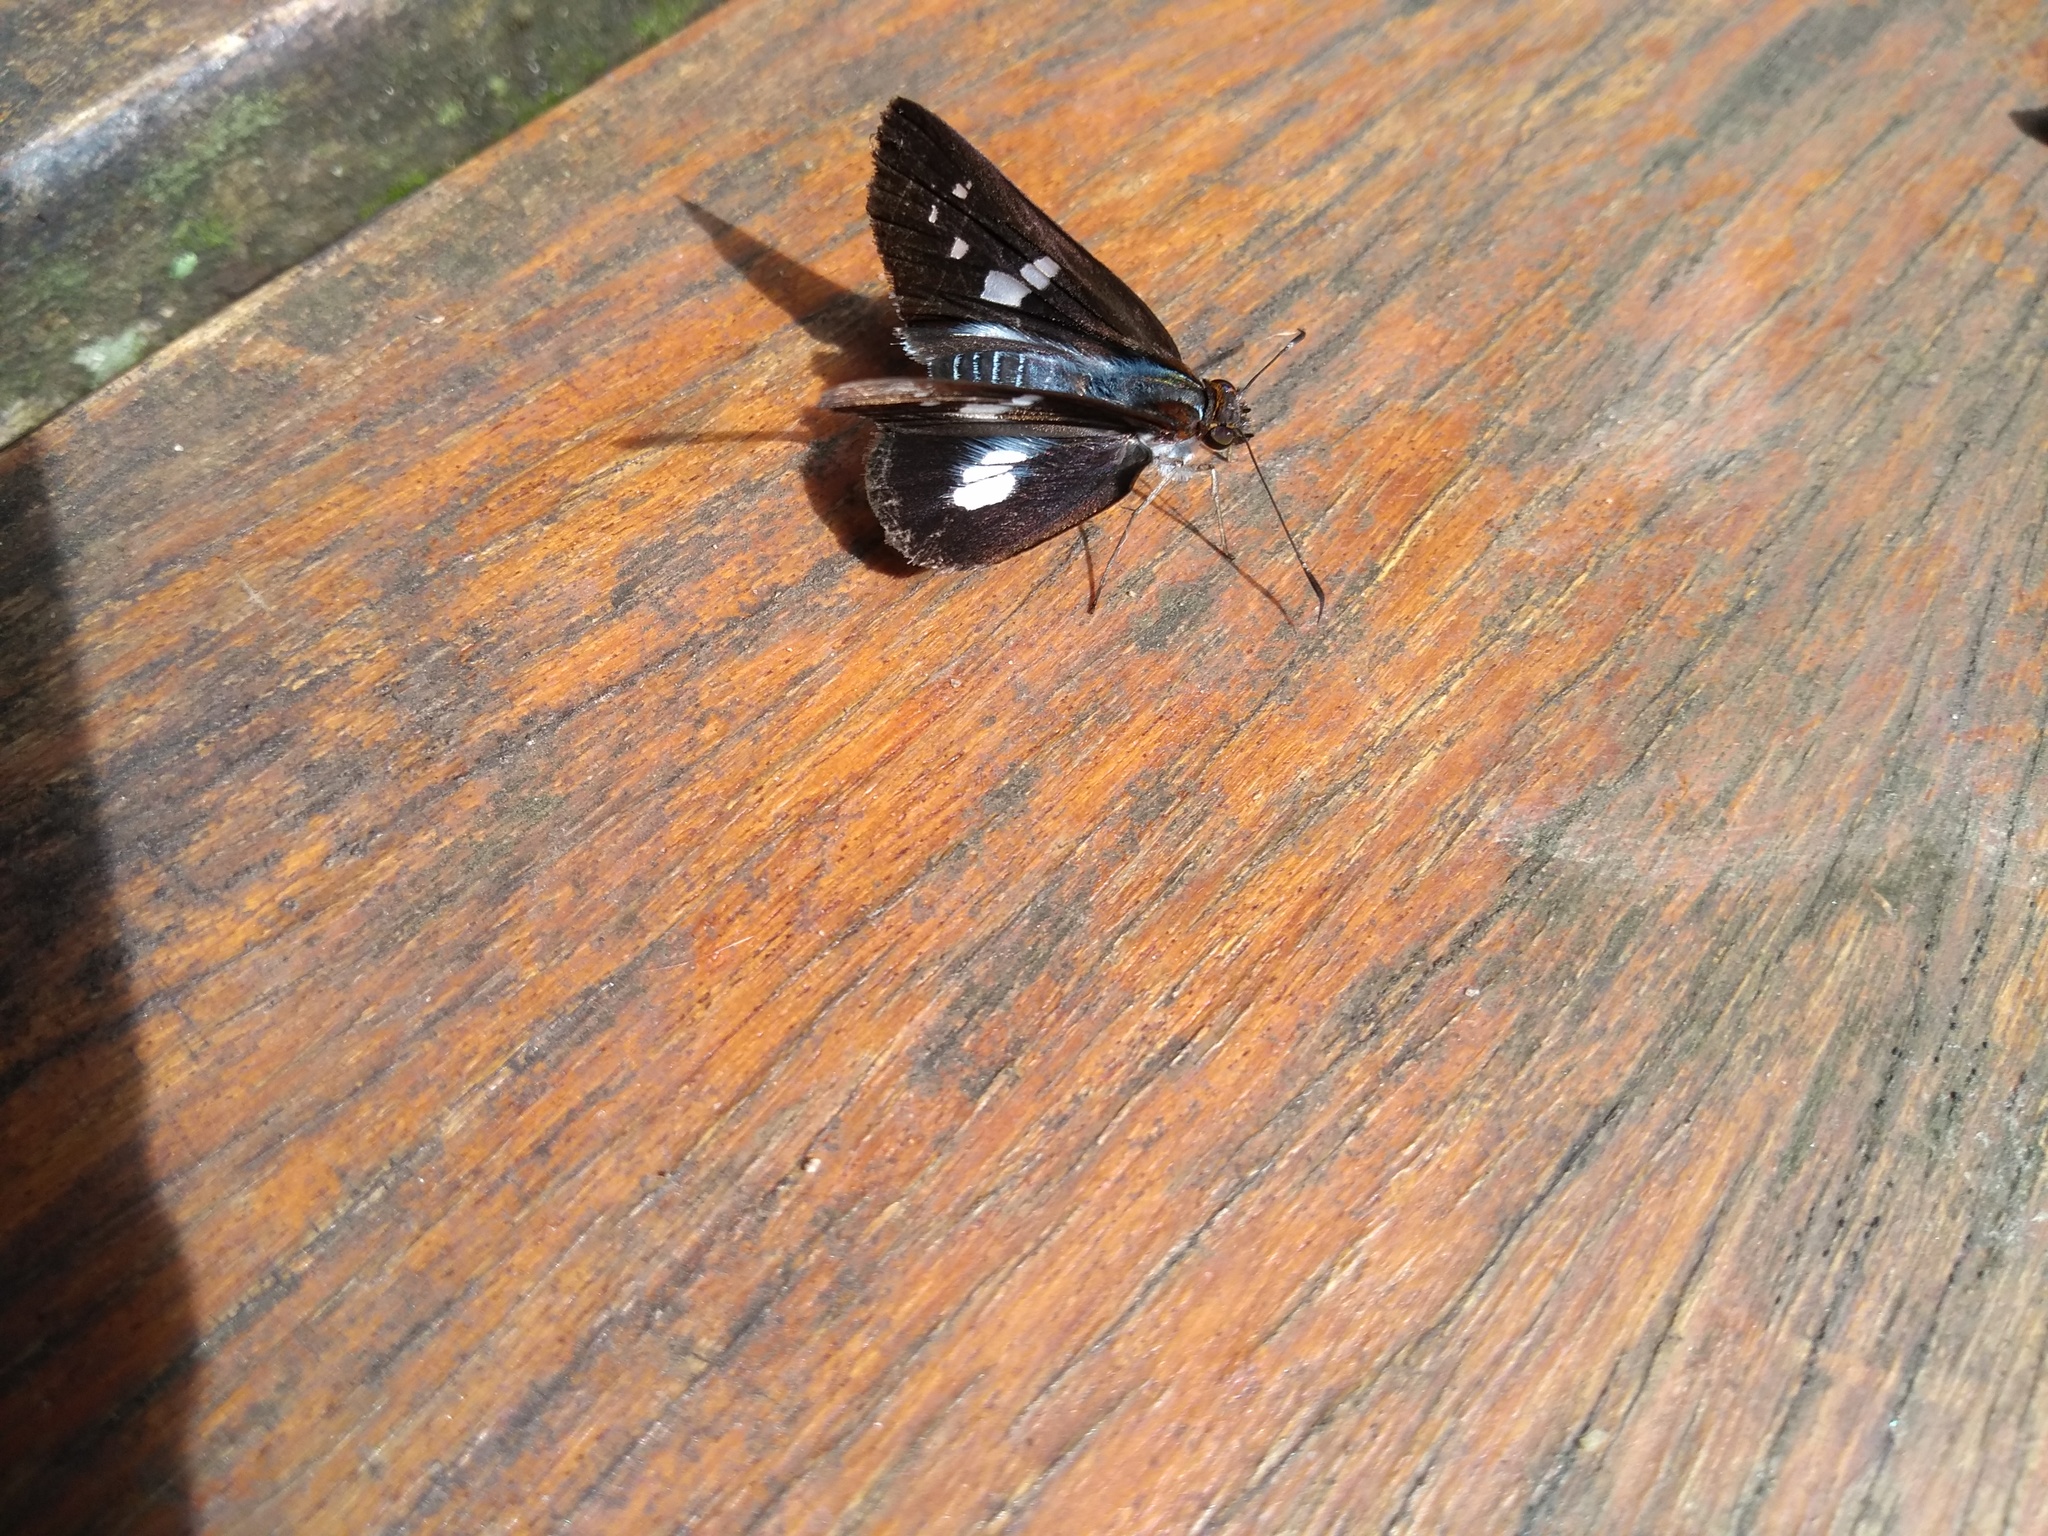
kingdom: Animalia
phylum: Arthropoda
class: Insecta
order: Lepidoptera
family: Hesperiidae
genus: Vettius
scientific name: Vettius lafrenaye
